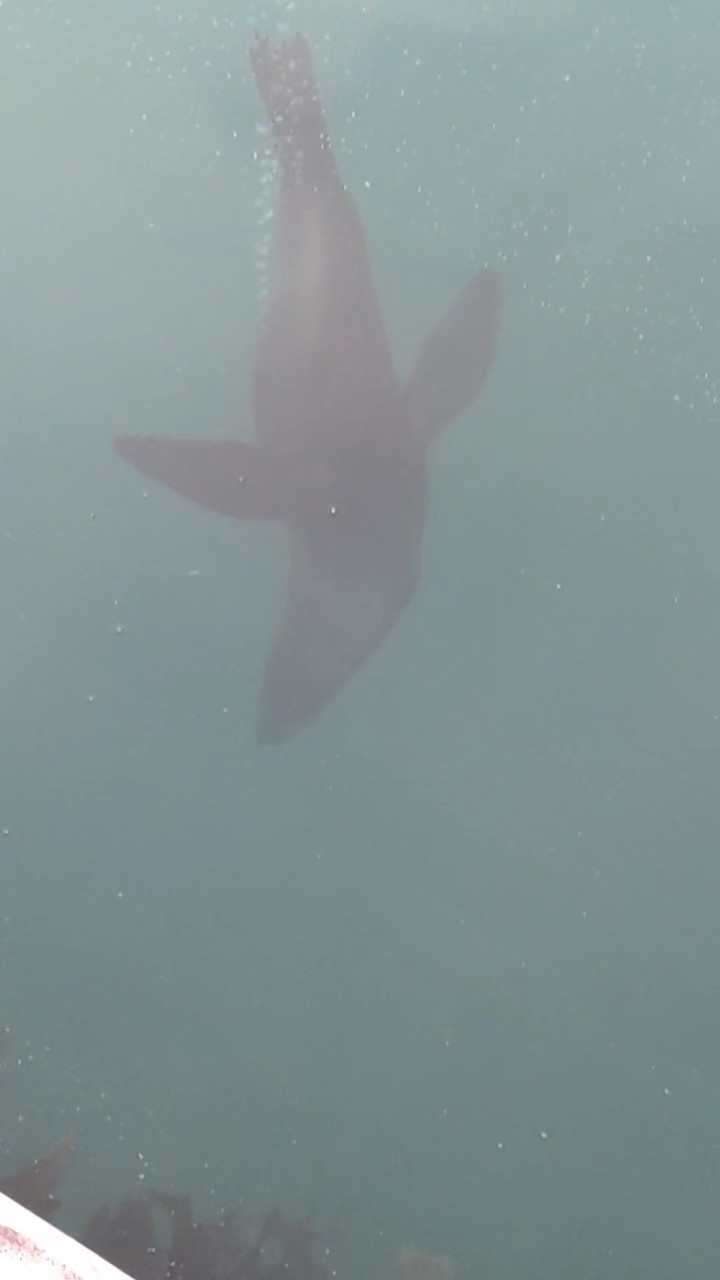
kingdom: Animalia
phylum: Chordata
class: Mammalia
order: Carnivora
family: Otariidae
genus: Arctocephalus
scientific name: Arctocephalus forsteri
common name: New zealand fur seal
